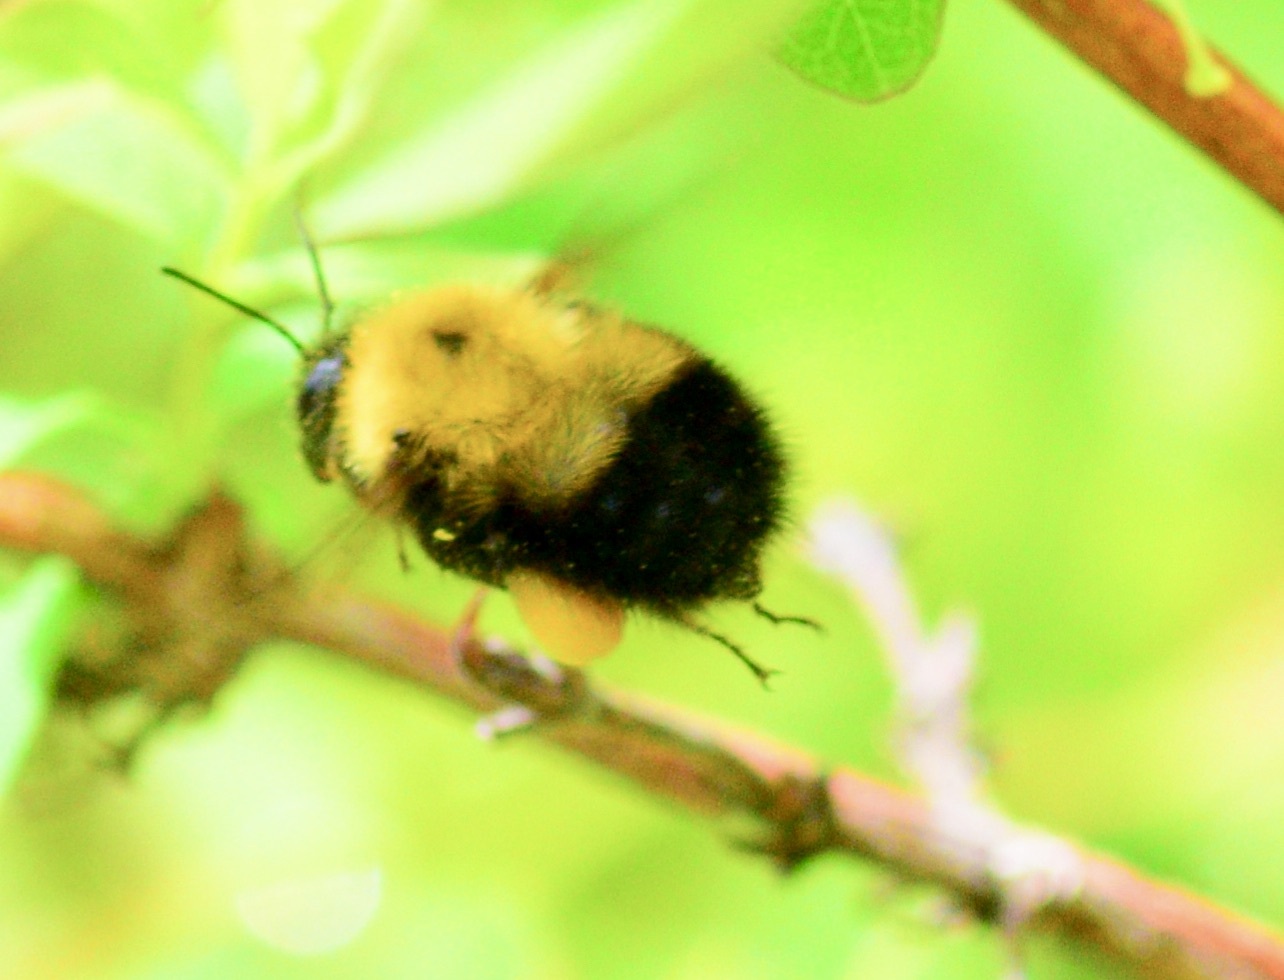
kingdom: Animalia
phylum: Arthropoda
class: Insecta
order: Hymenoptera
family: Apidae
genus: Bombus
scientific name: Bombus perplexus
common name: Confusing bumble bee
